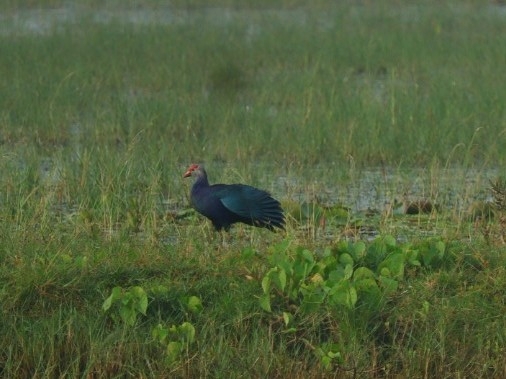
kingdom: Animalia
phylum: Chordata
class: Aves
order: Gruiformes
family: Rallidae
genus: Porphyrio
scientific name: Porphyrio porphyrio
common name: Purple swamphen
